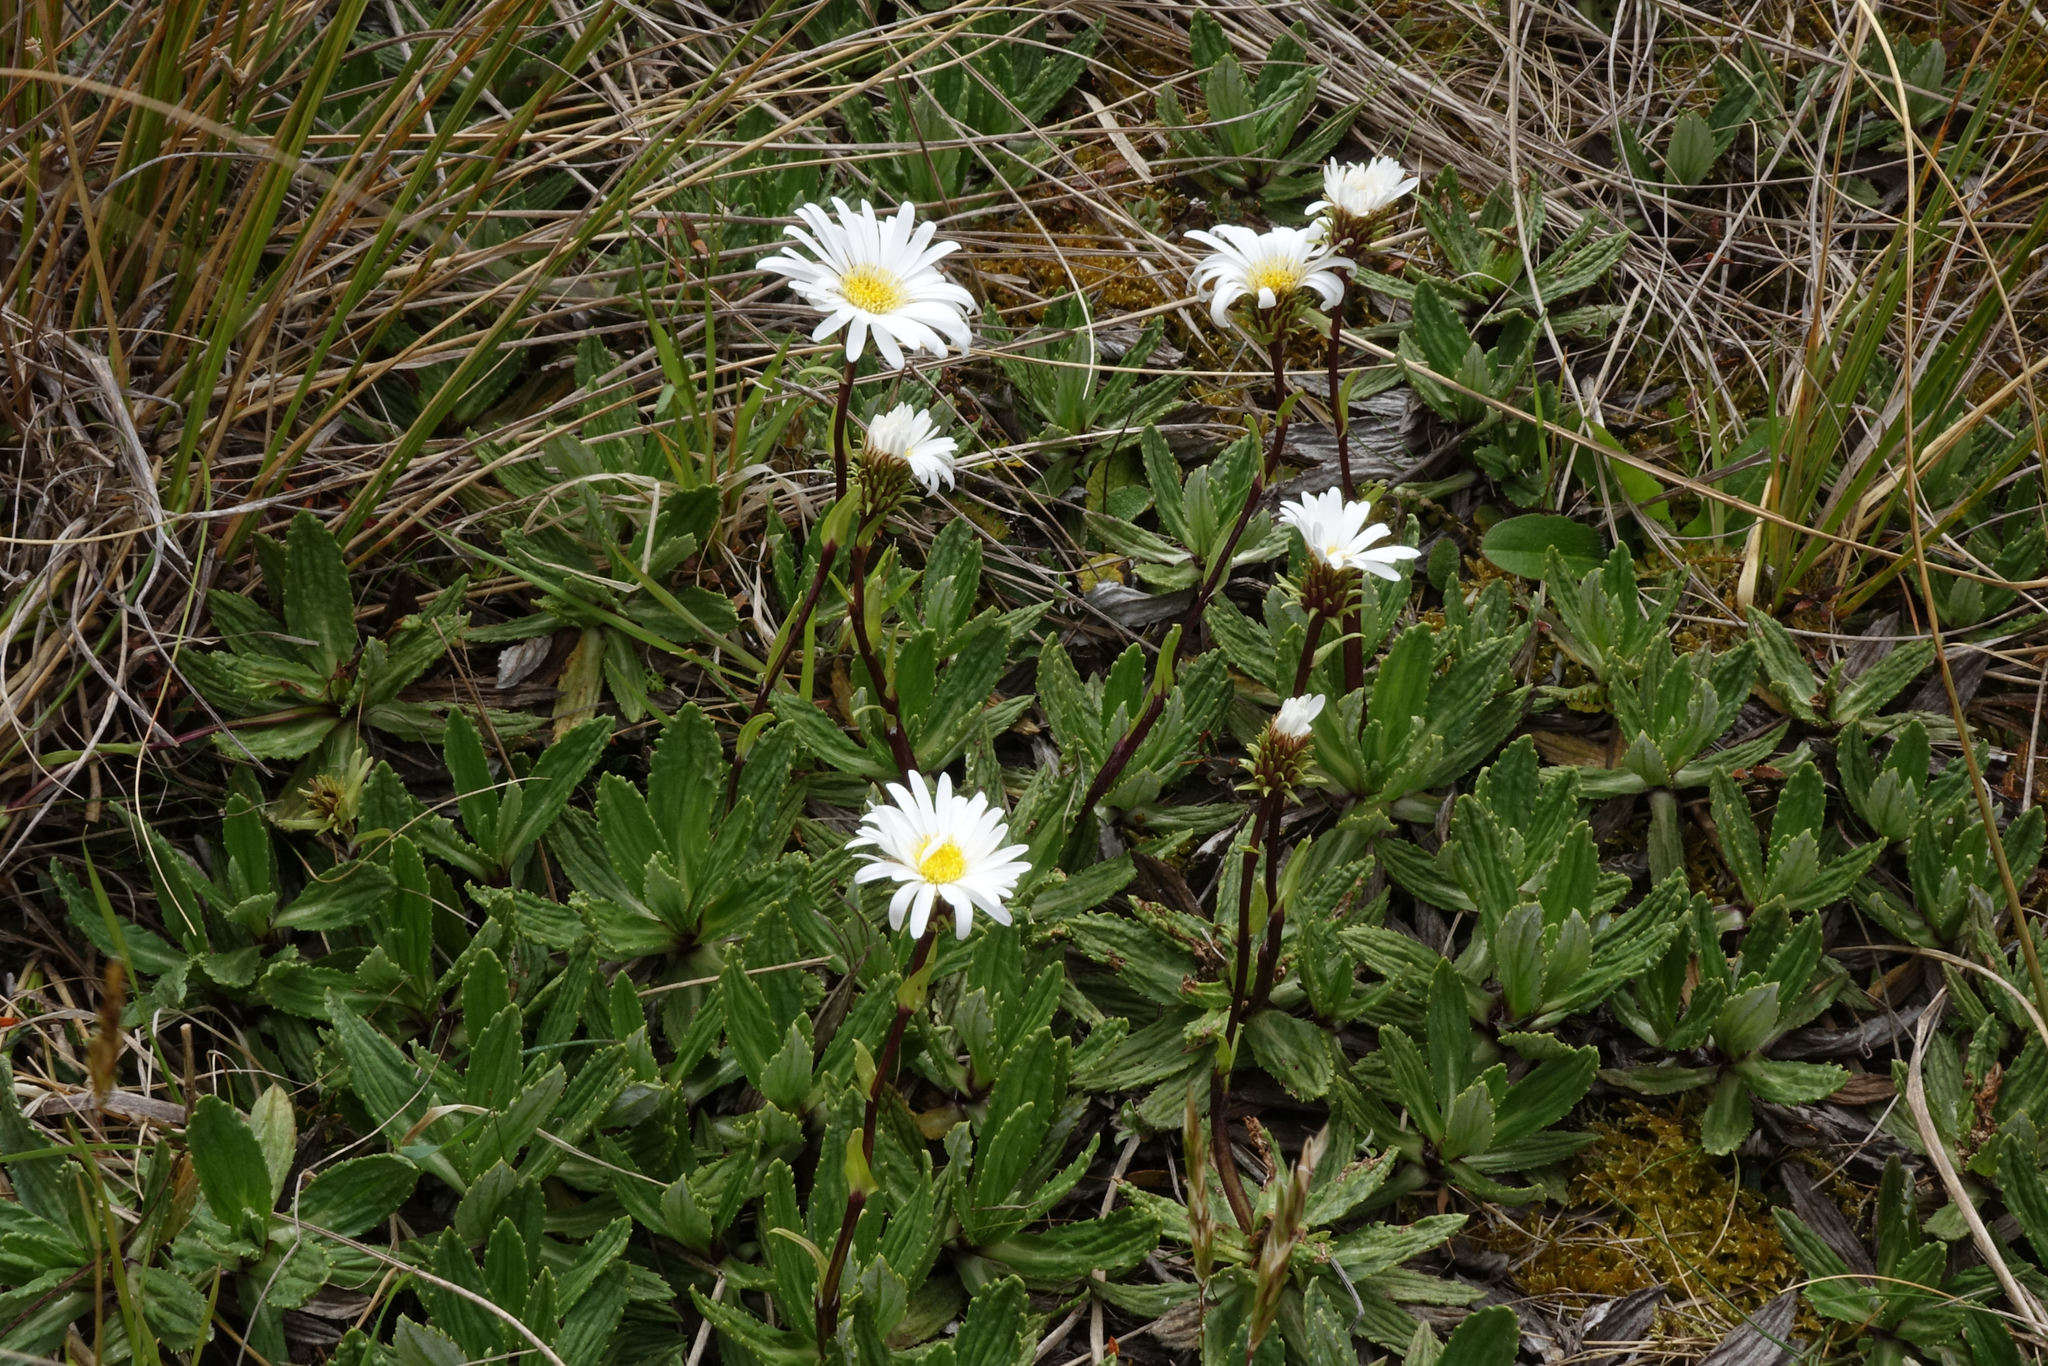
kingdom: Plantae
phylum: Tracheophyta
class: Magnoliopsida
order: Asterales
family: Asteraceae
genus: Celmisia
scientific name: Celmisia prorepens
